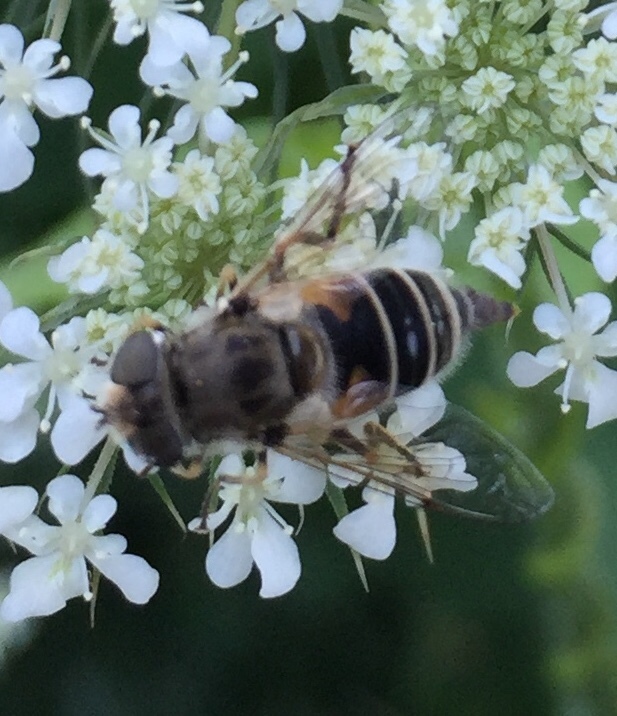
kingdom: Animalia
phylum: Arthropoda
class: Insecta
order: Diptera
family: Syrphidae
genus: Eristalis
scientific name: Eristalis arbustorum
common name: Hover fly
